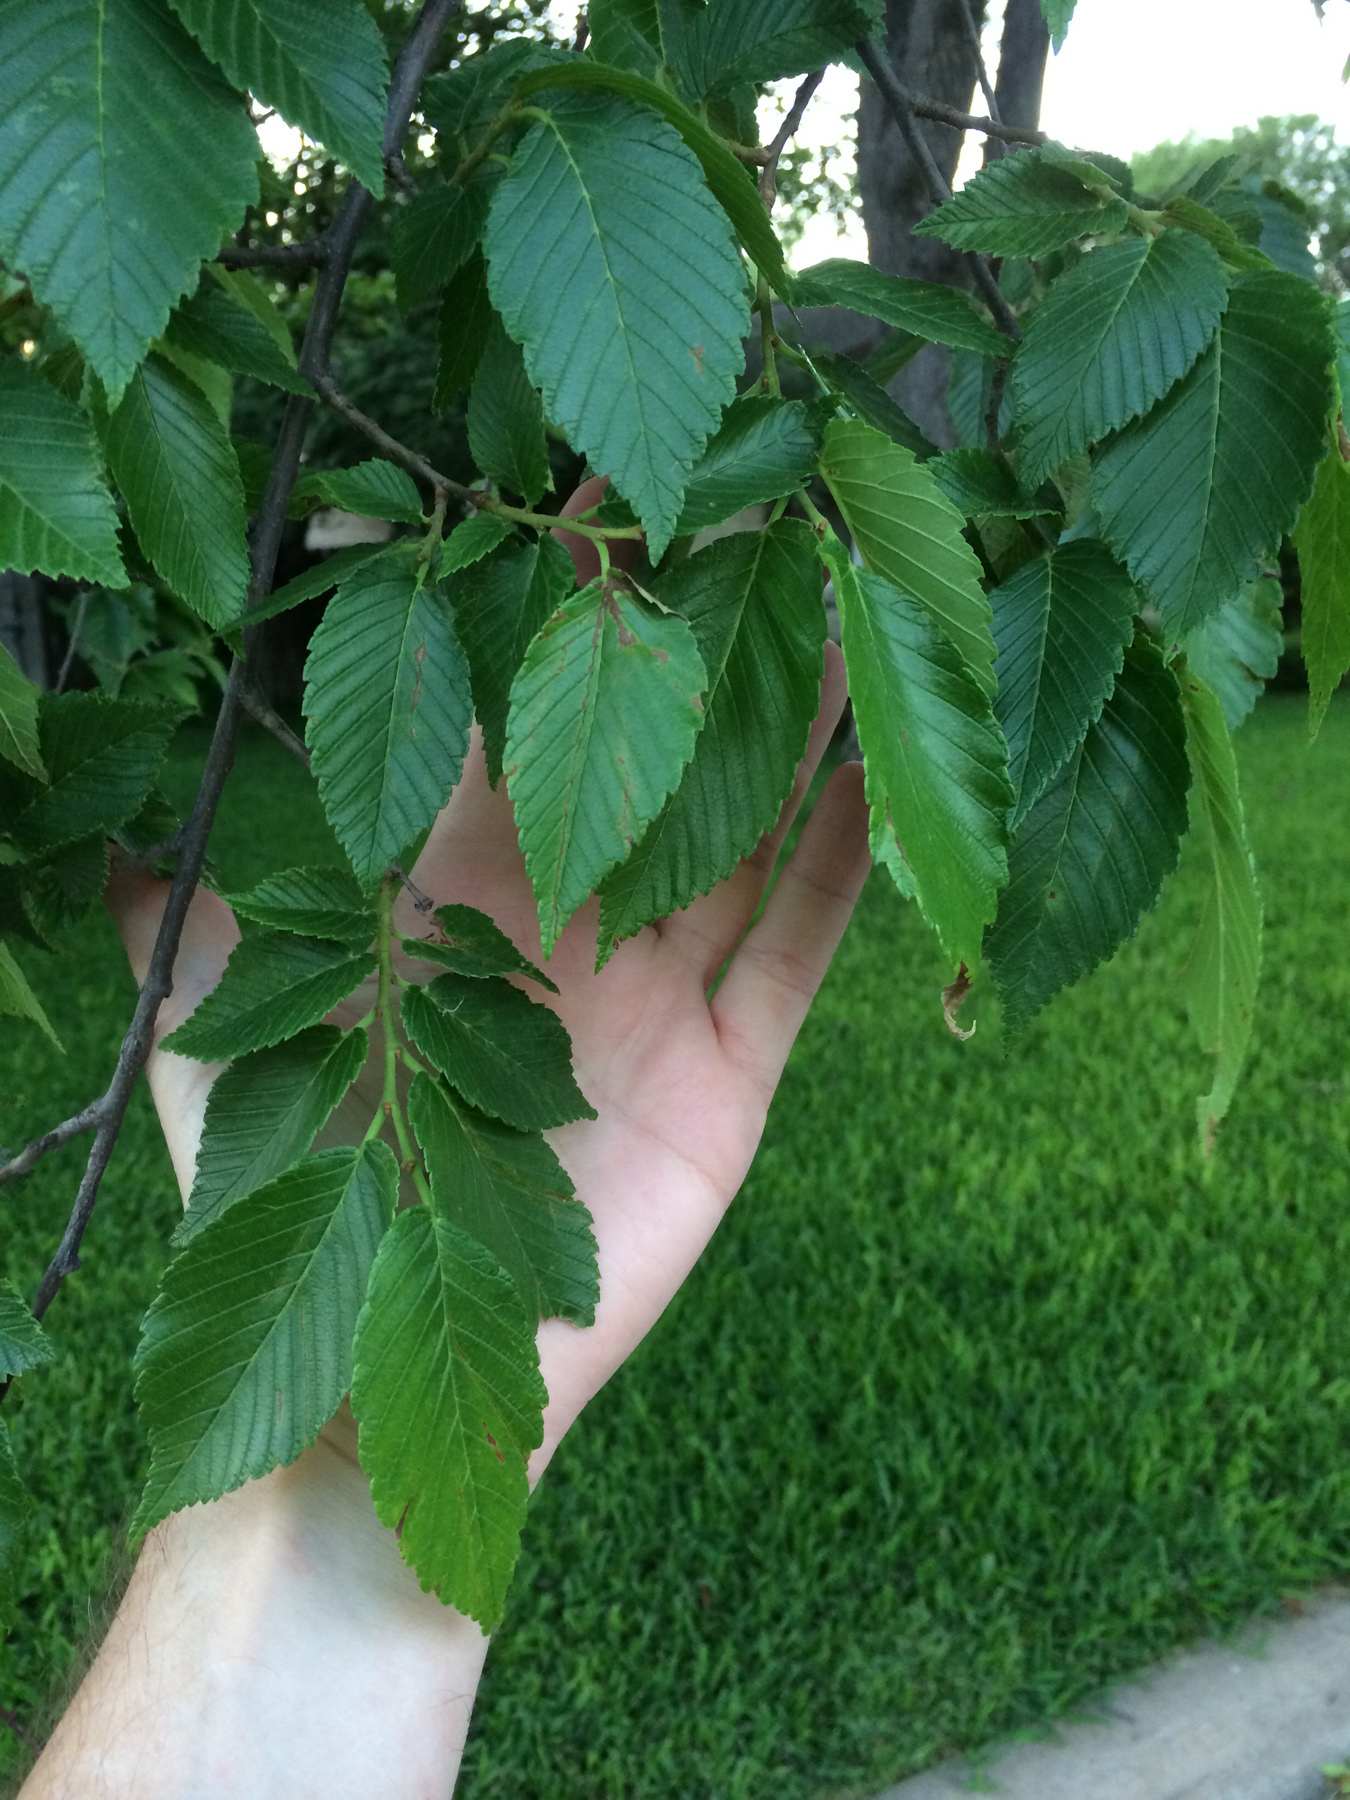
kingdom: Plantae
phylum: Tracheophyta
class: Magnoliopsida
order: Rosales
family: Ulmaceae
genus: Ulmus
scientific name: Ulmus americana
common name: American elm
